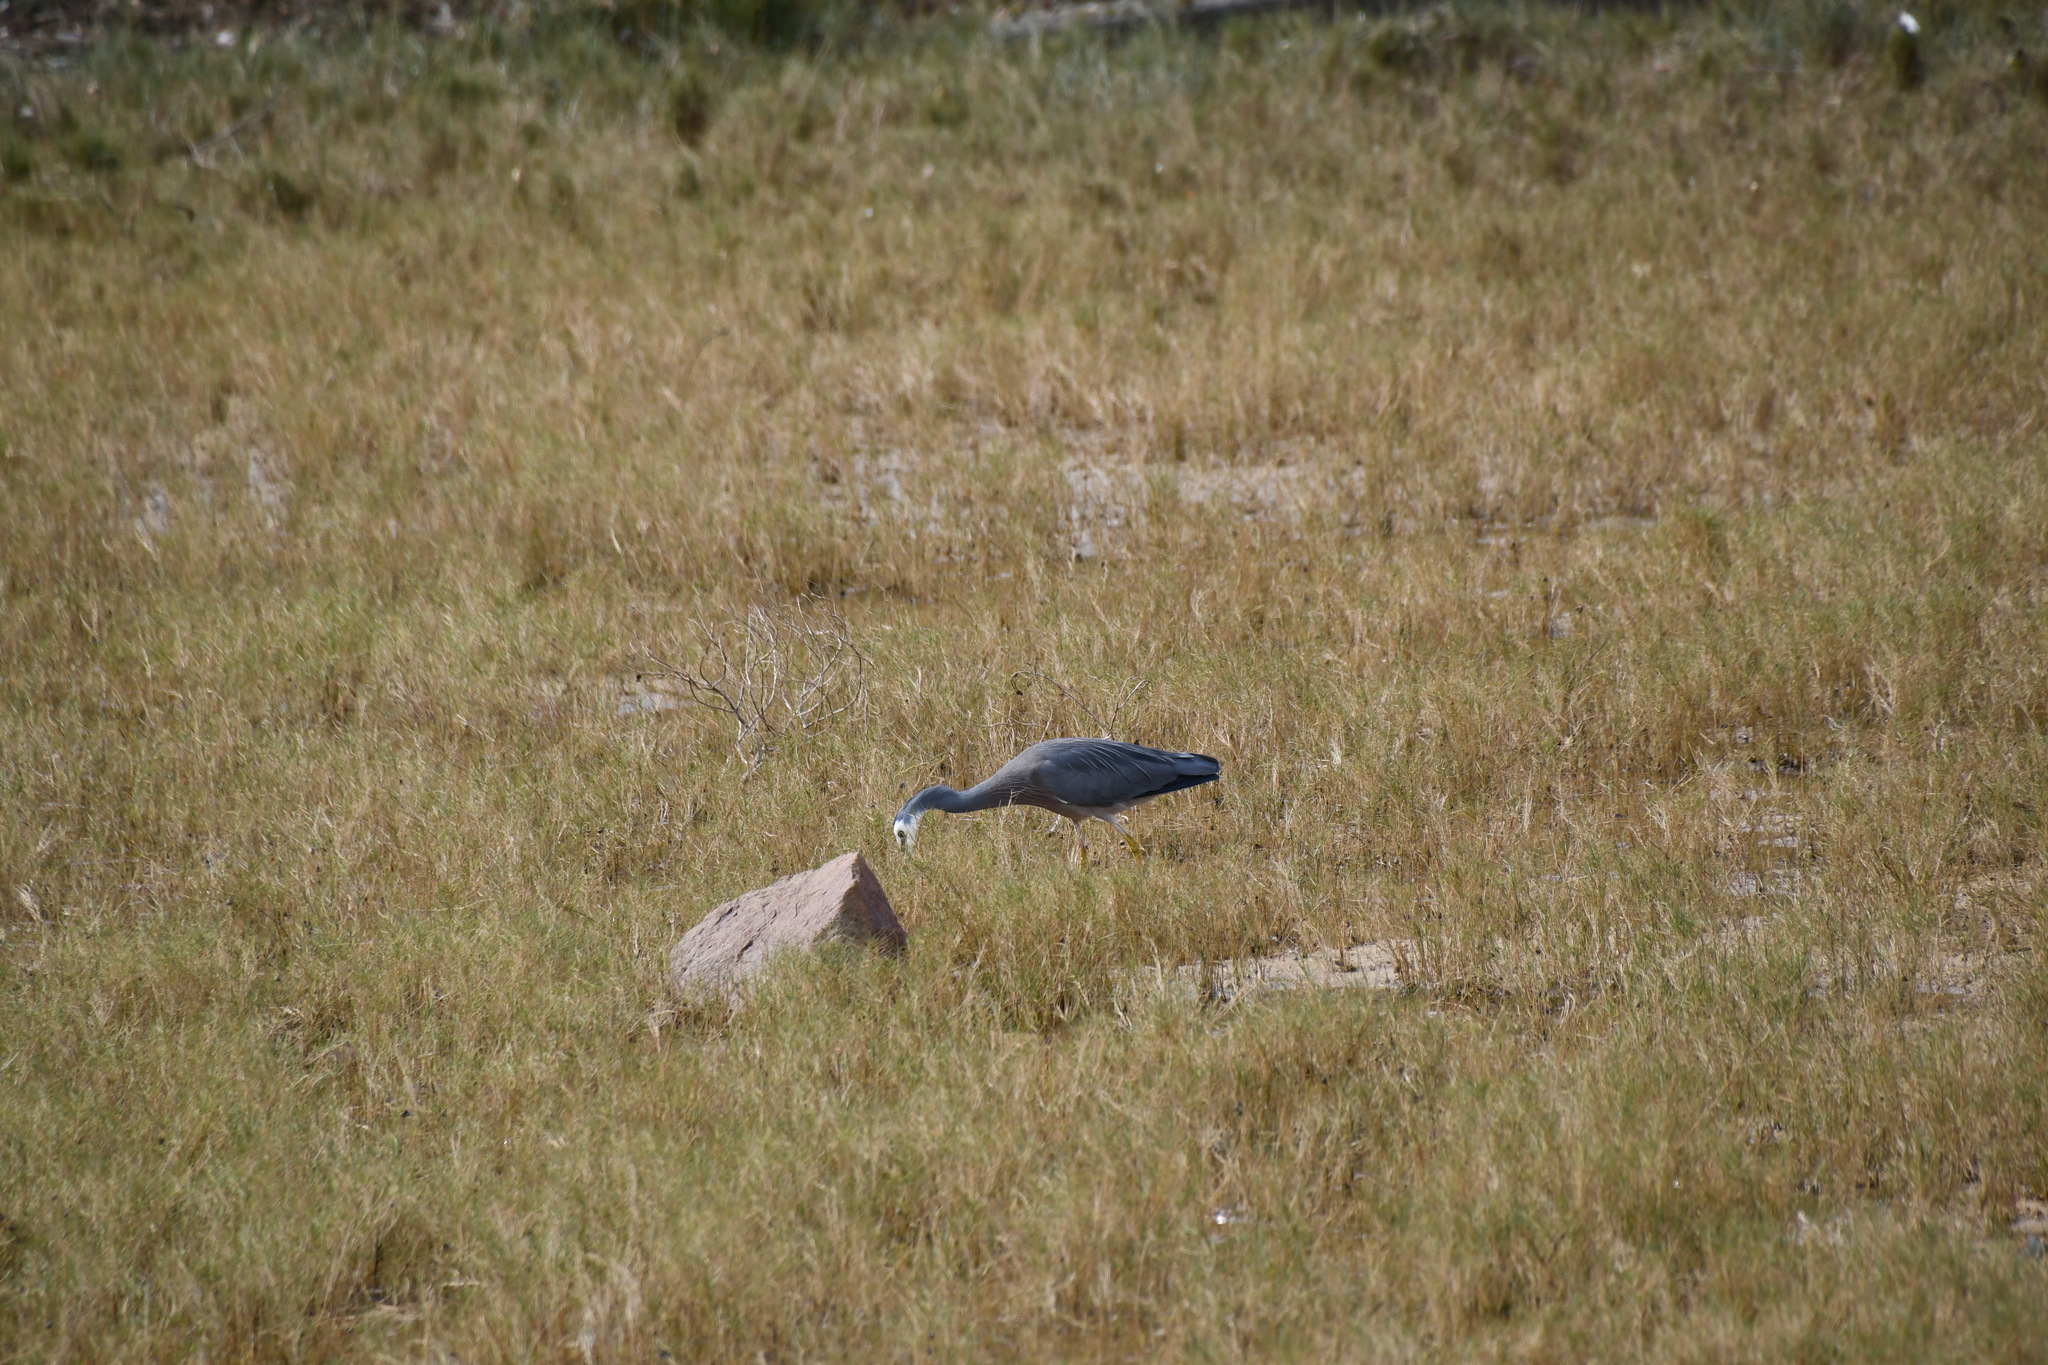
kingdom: Animalia
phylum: Chordata
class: Aves
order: Pelecaniformes
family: Ardeidae
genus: Egretta
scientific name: Egretta novaehollandiae
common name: White-faced heron
